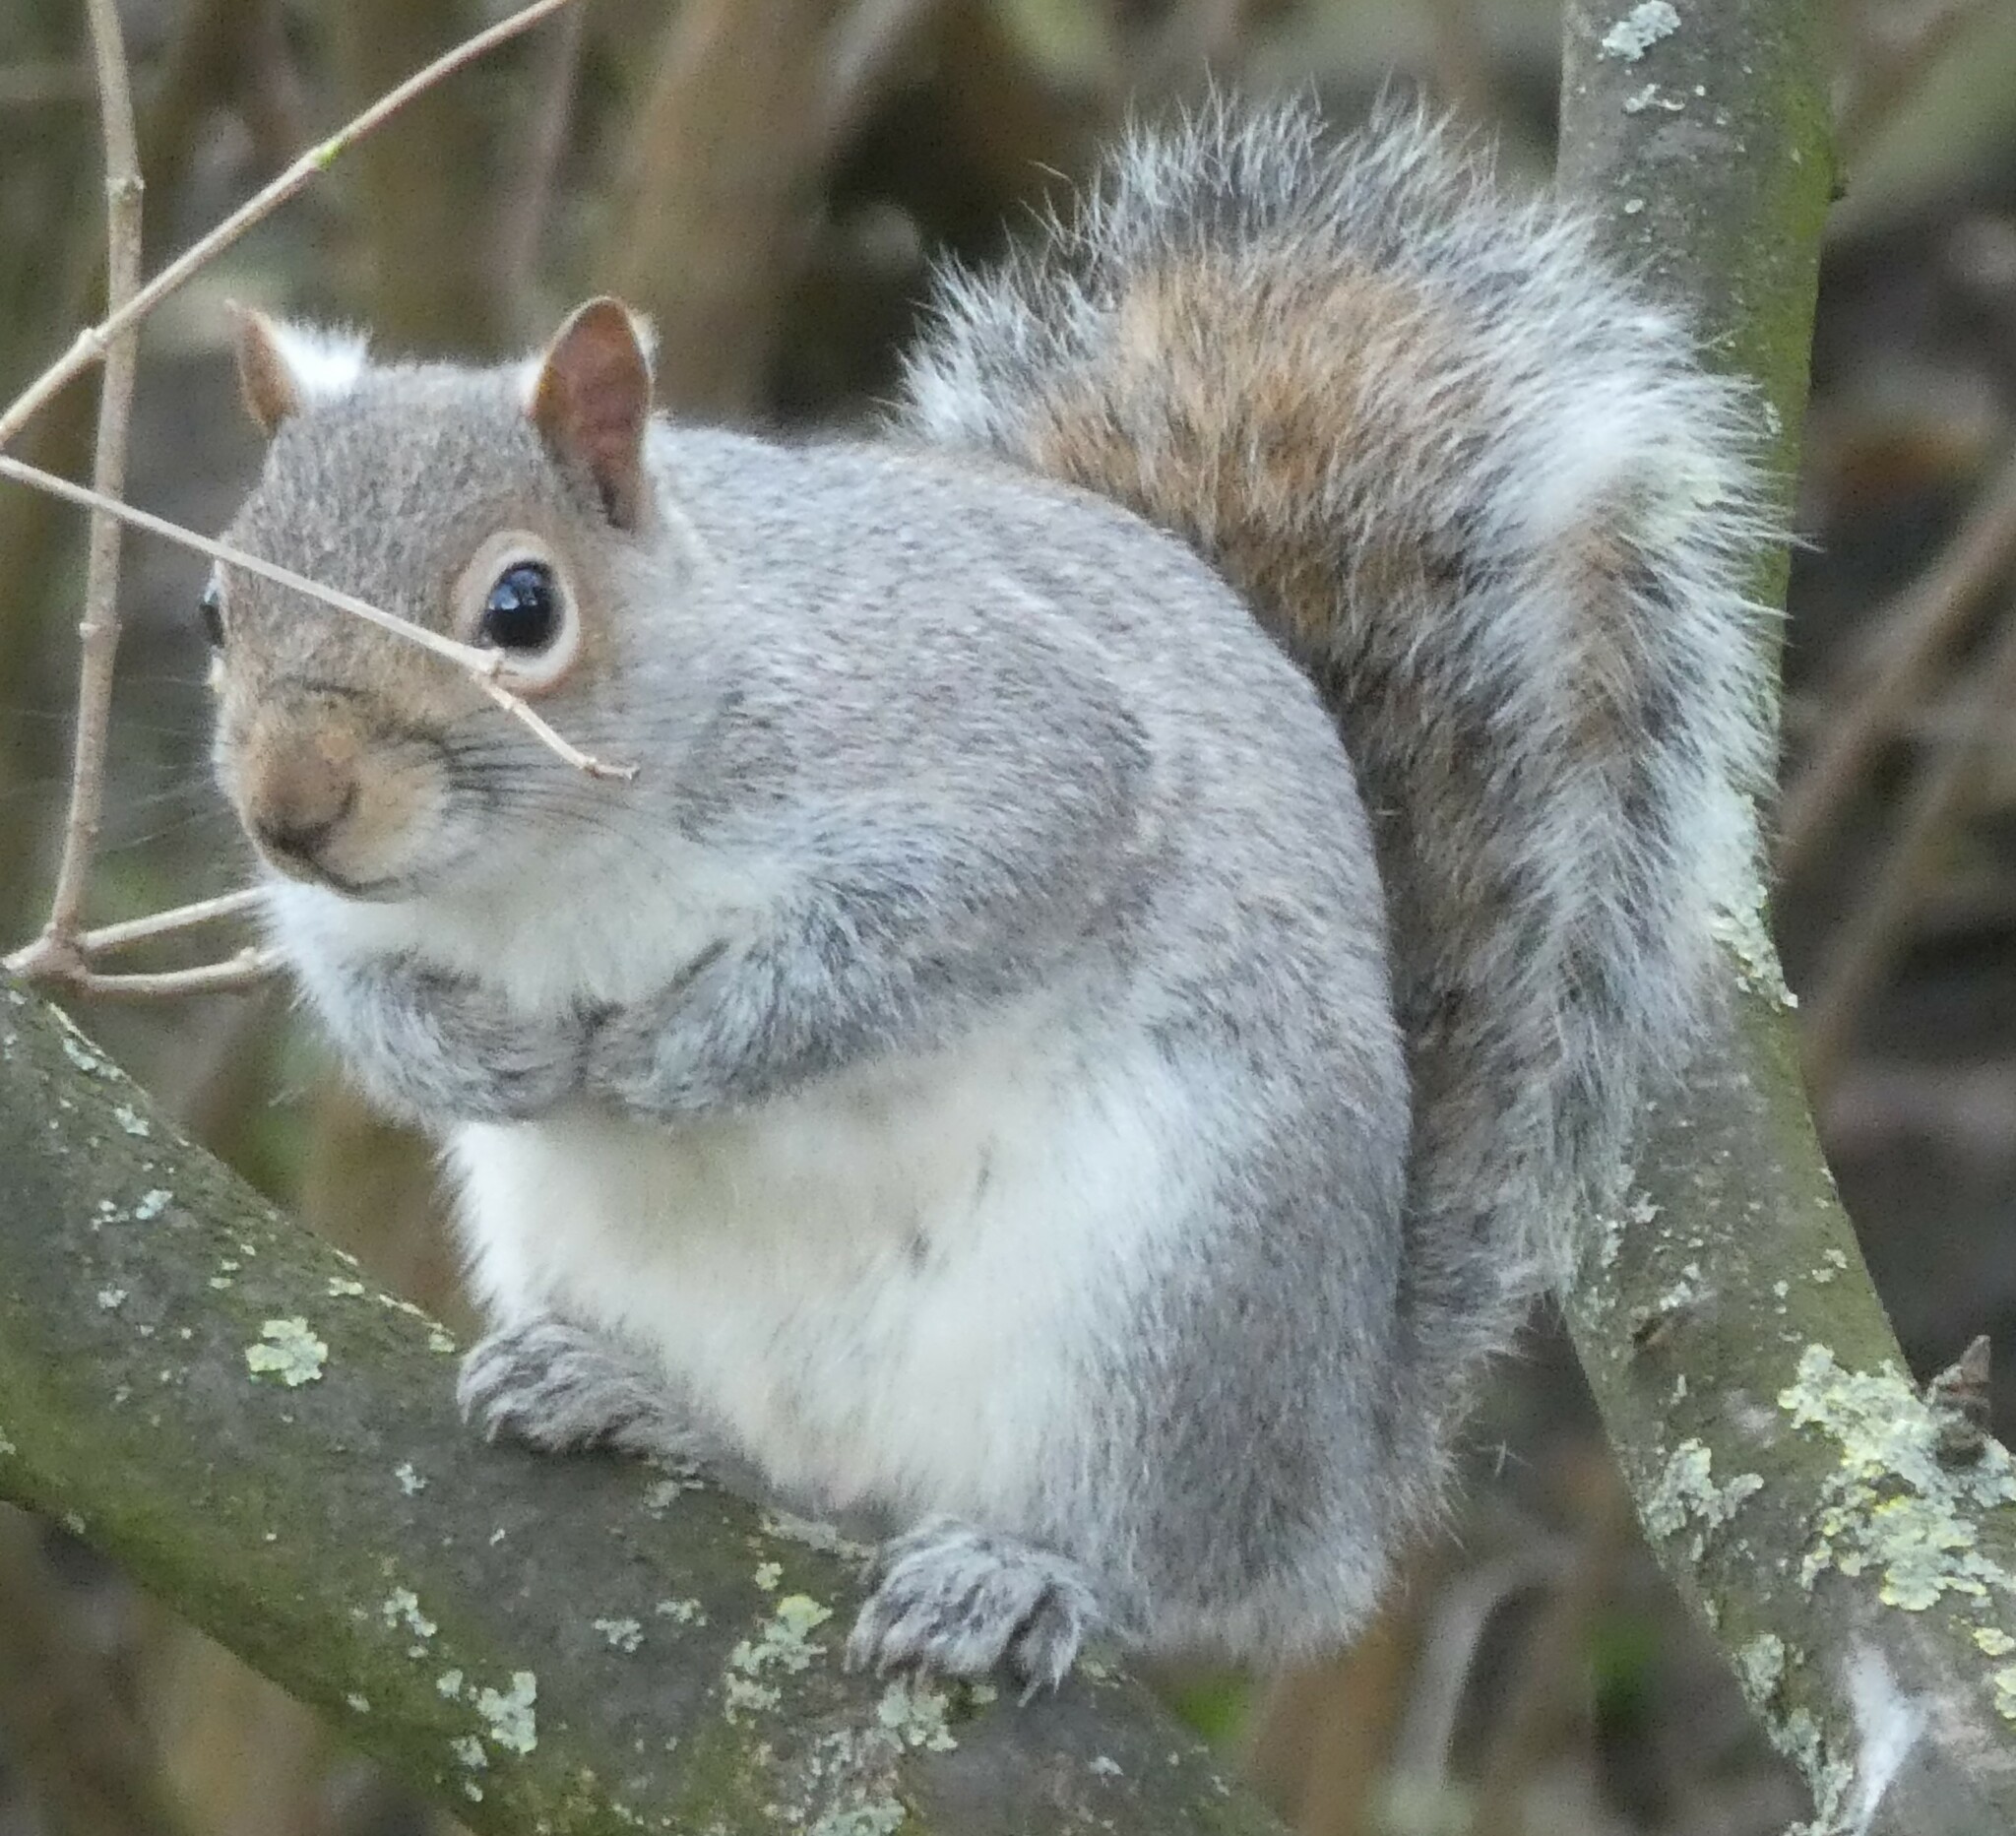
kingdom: Animalia
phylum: Chordata
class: Mammalia
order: Rodentia
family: Sciuridae
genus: Sciurus
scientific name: Sciurus carolinensis
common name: Eastern gray squirrel
